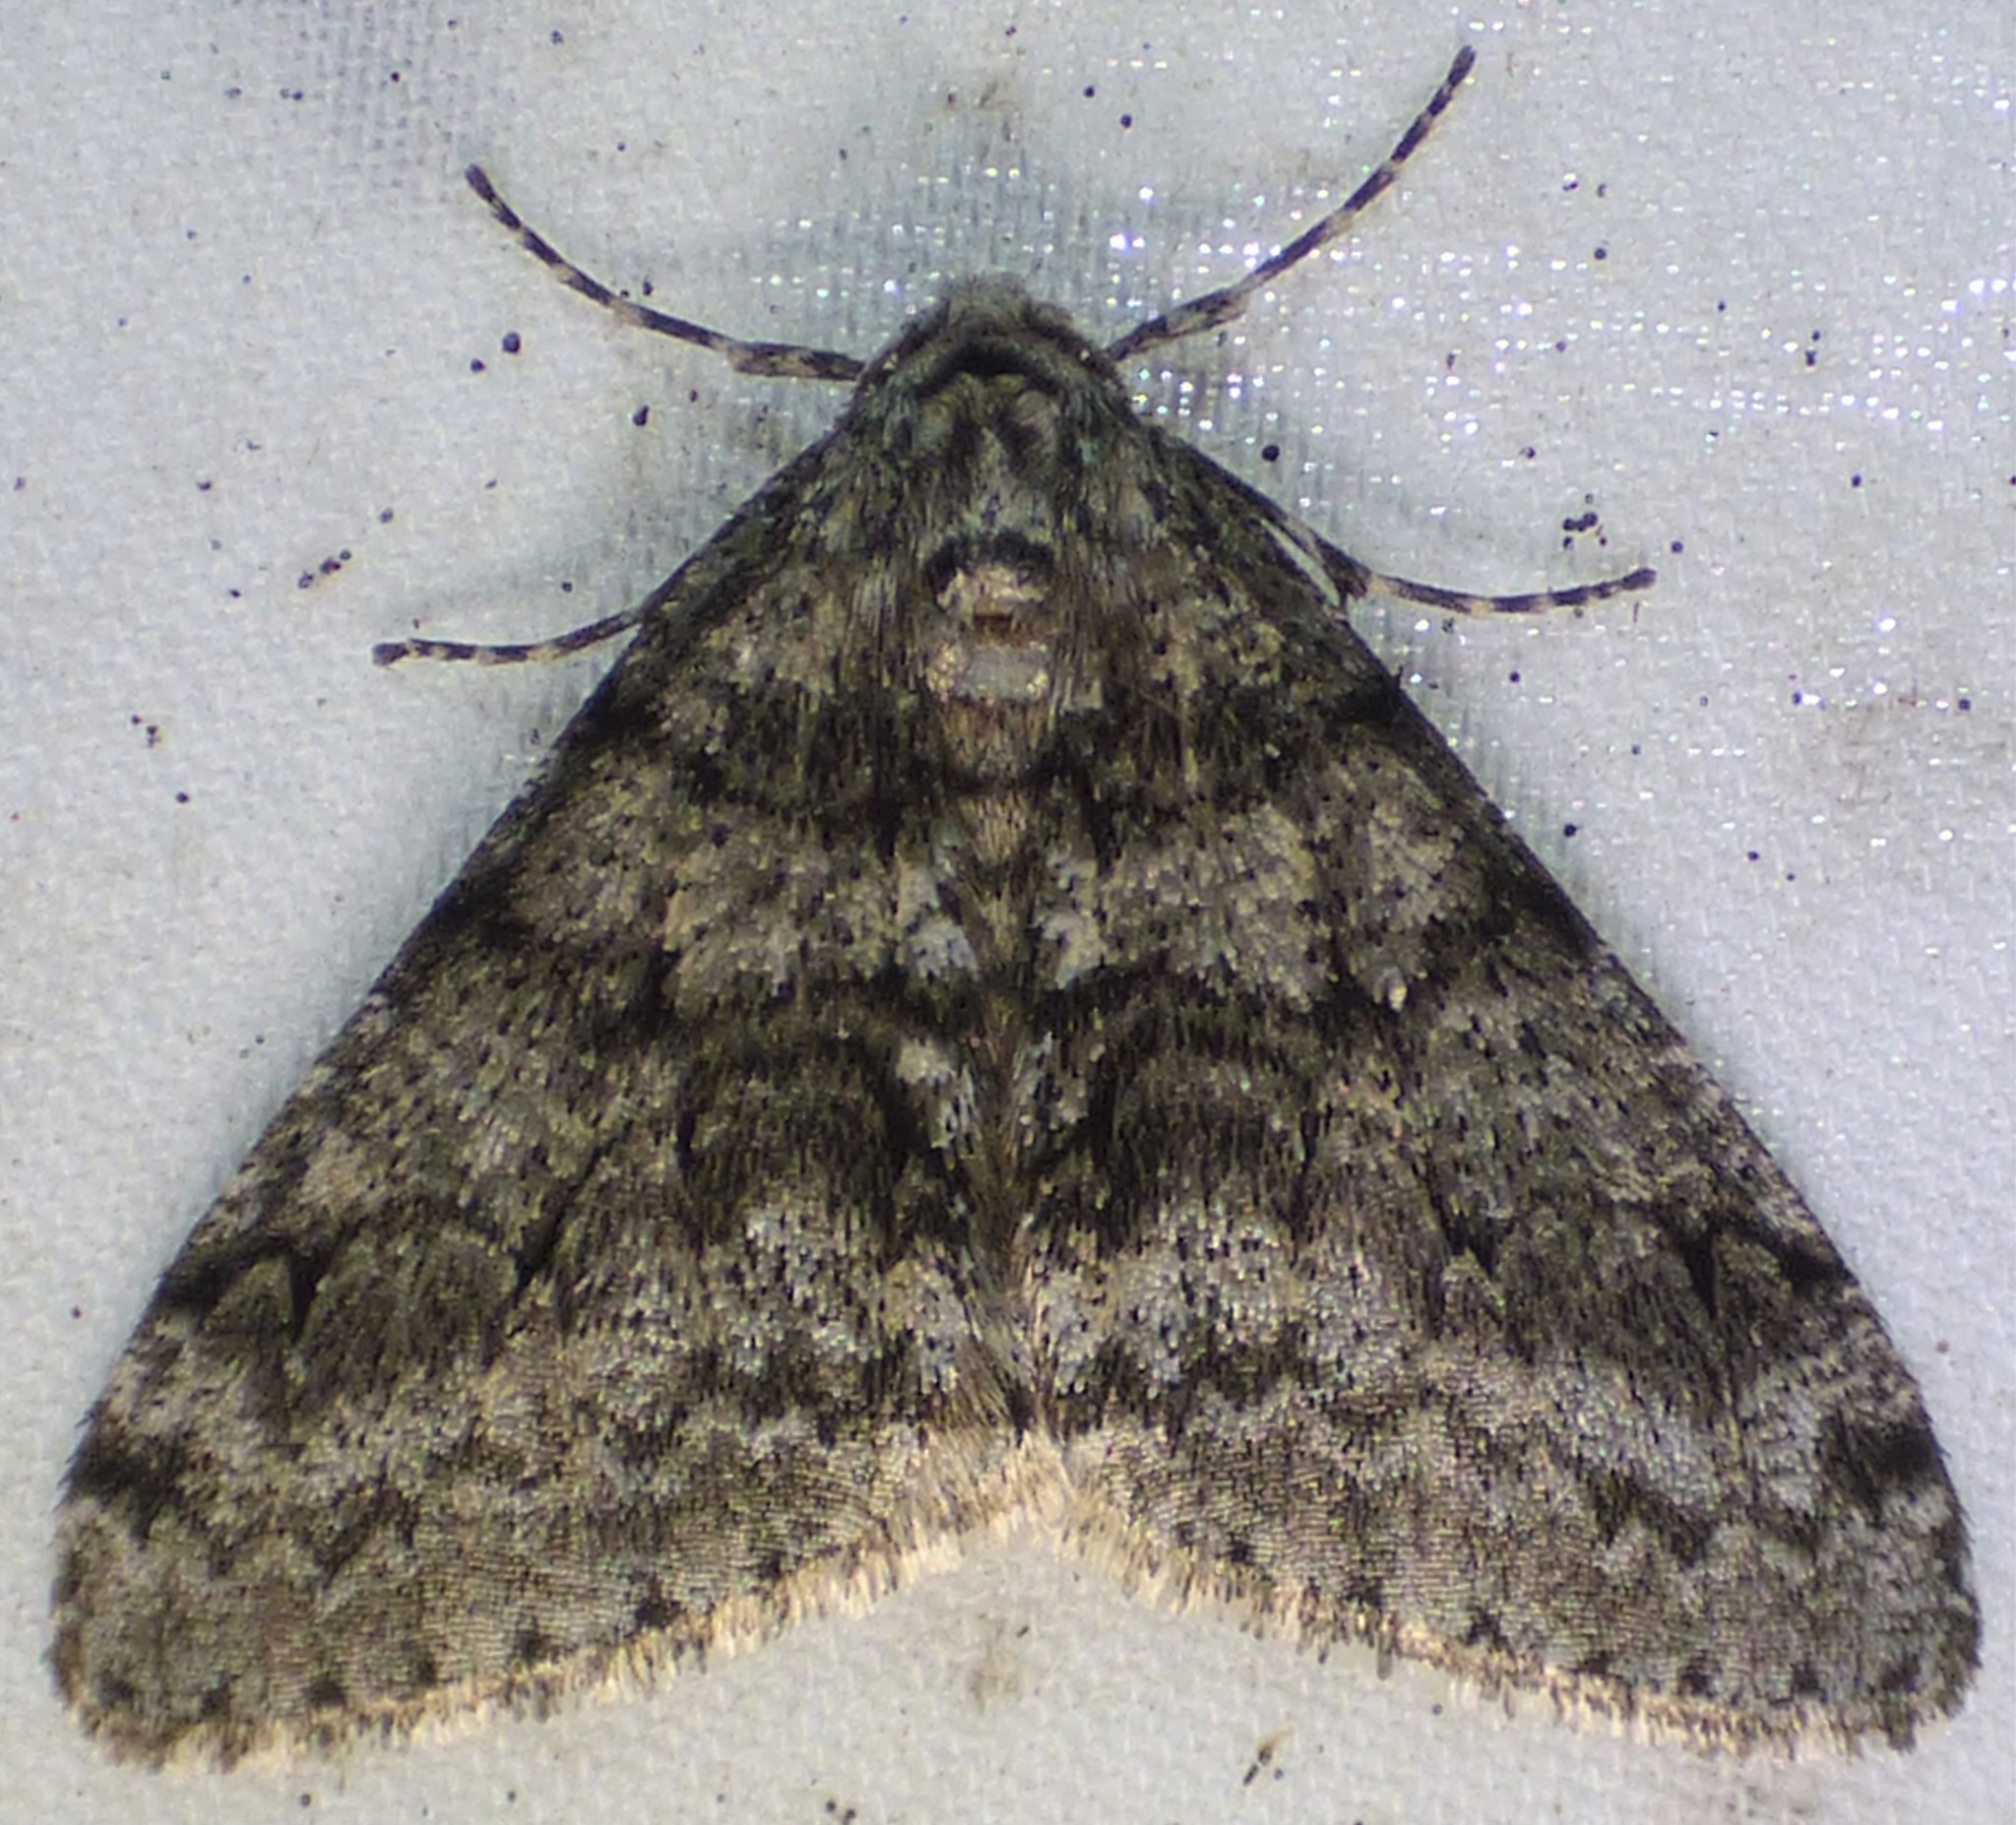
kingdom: Animalia
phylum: Arthropoda
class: Insecta
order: Lepidoptera
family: Geometridae
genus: Phigalia
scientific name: Phigalia strigataria
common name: Small phigalia
